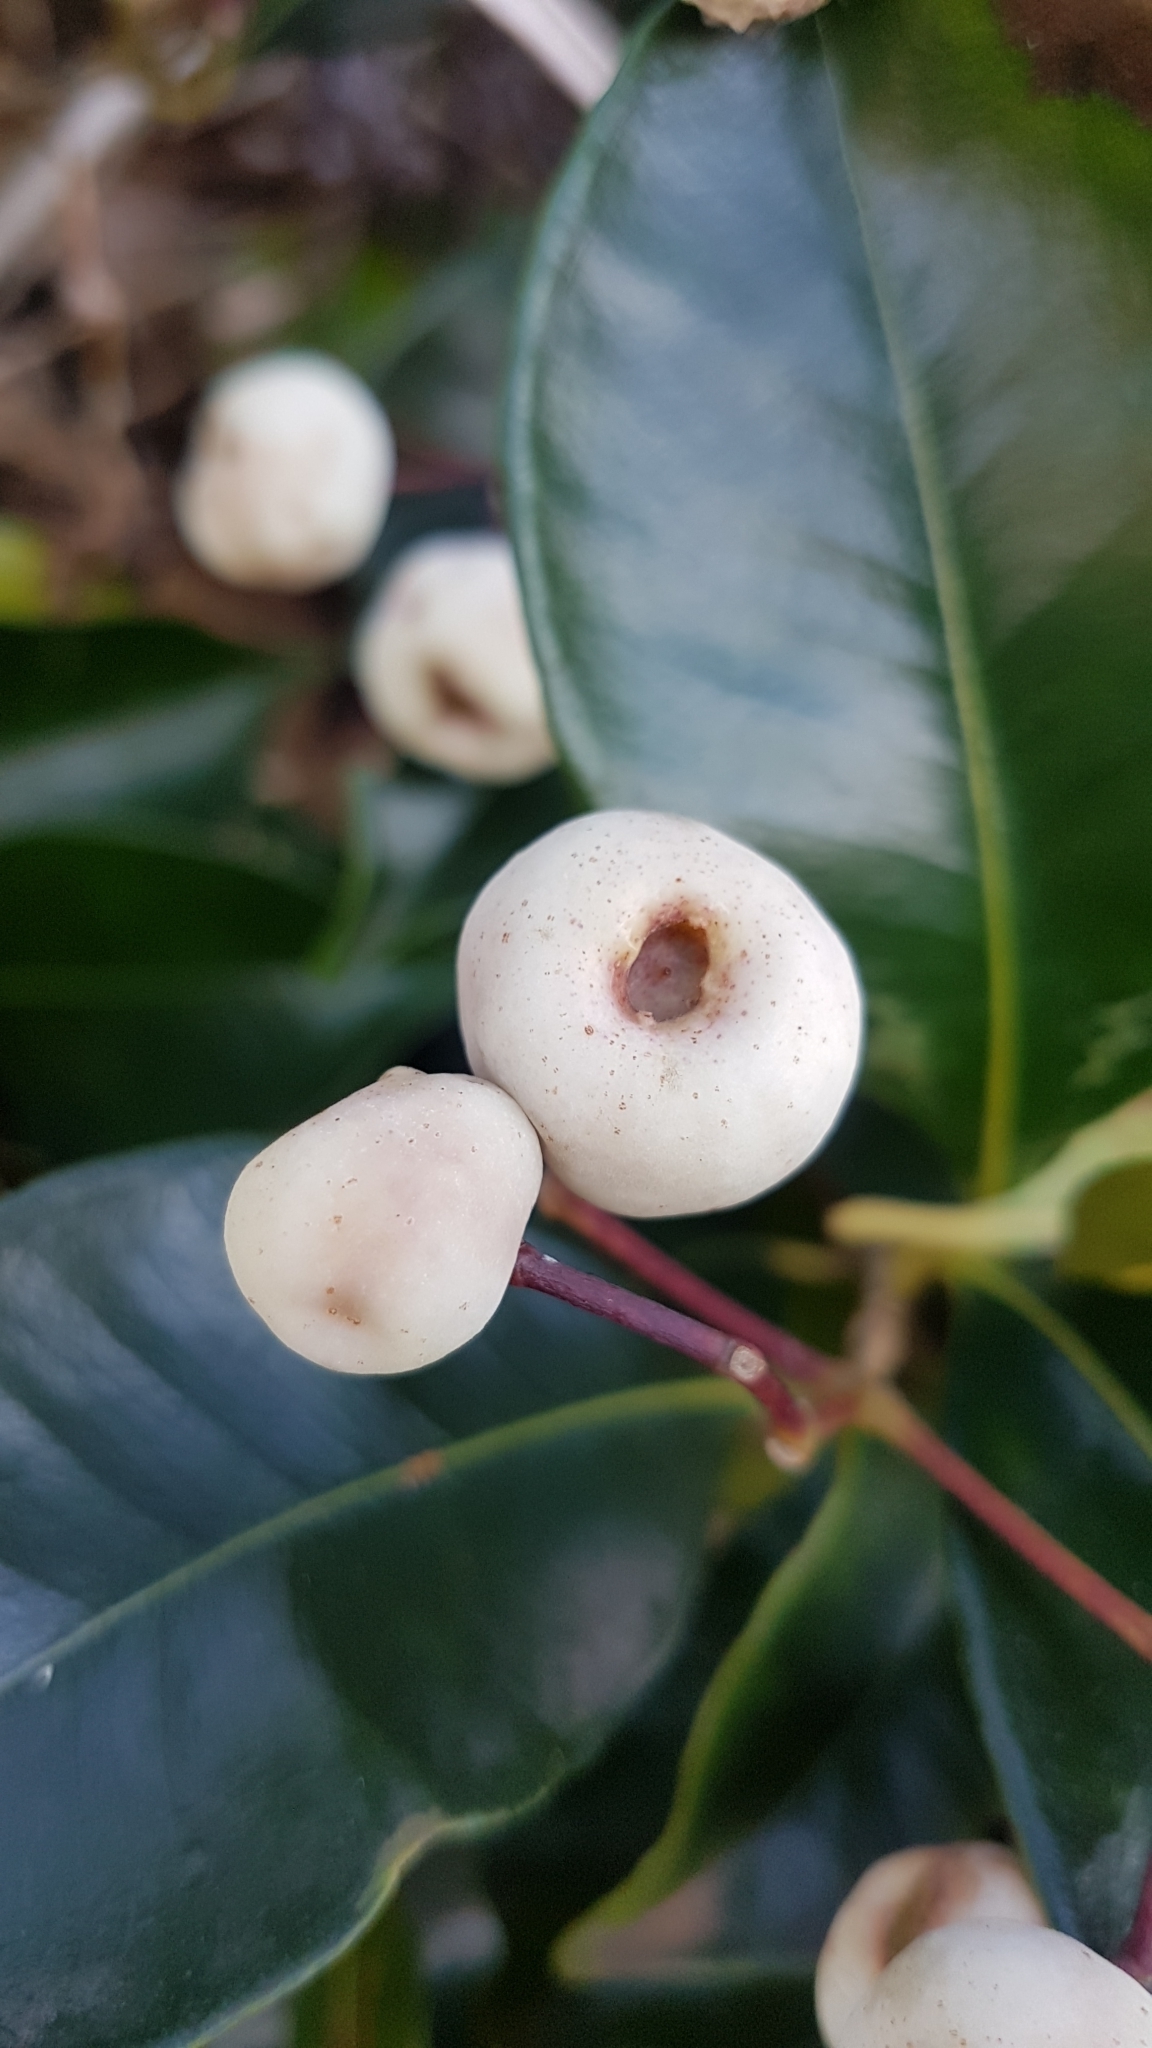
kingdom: Plantae
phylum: Tracheophyta
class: Magnoliopsida
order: Myrtales
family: Myrtaceae
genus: Syzygium
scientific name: Syzygium smithii
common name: Lilly-pilly
